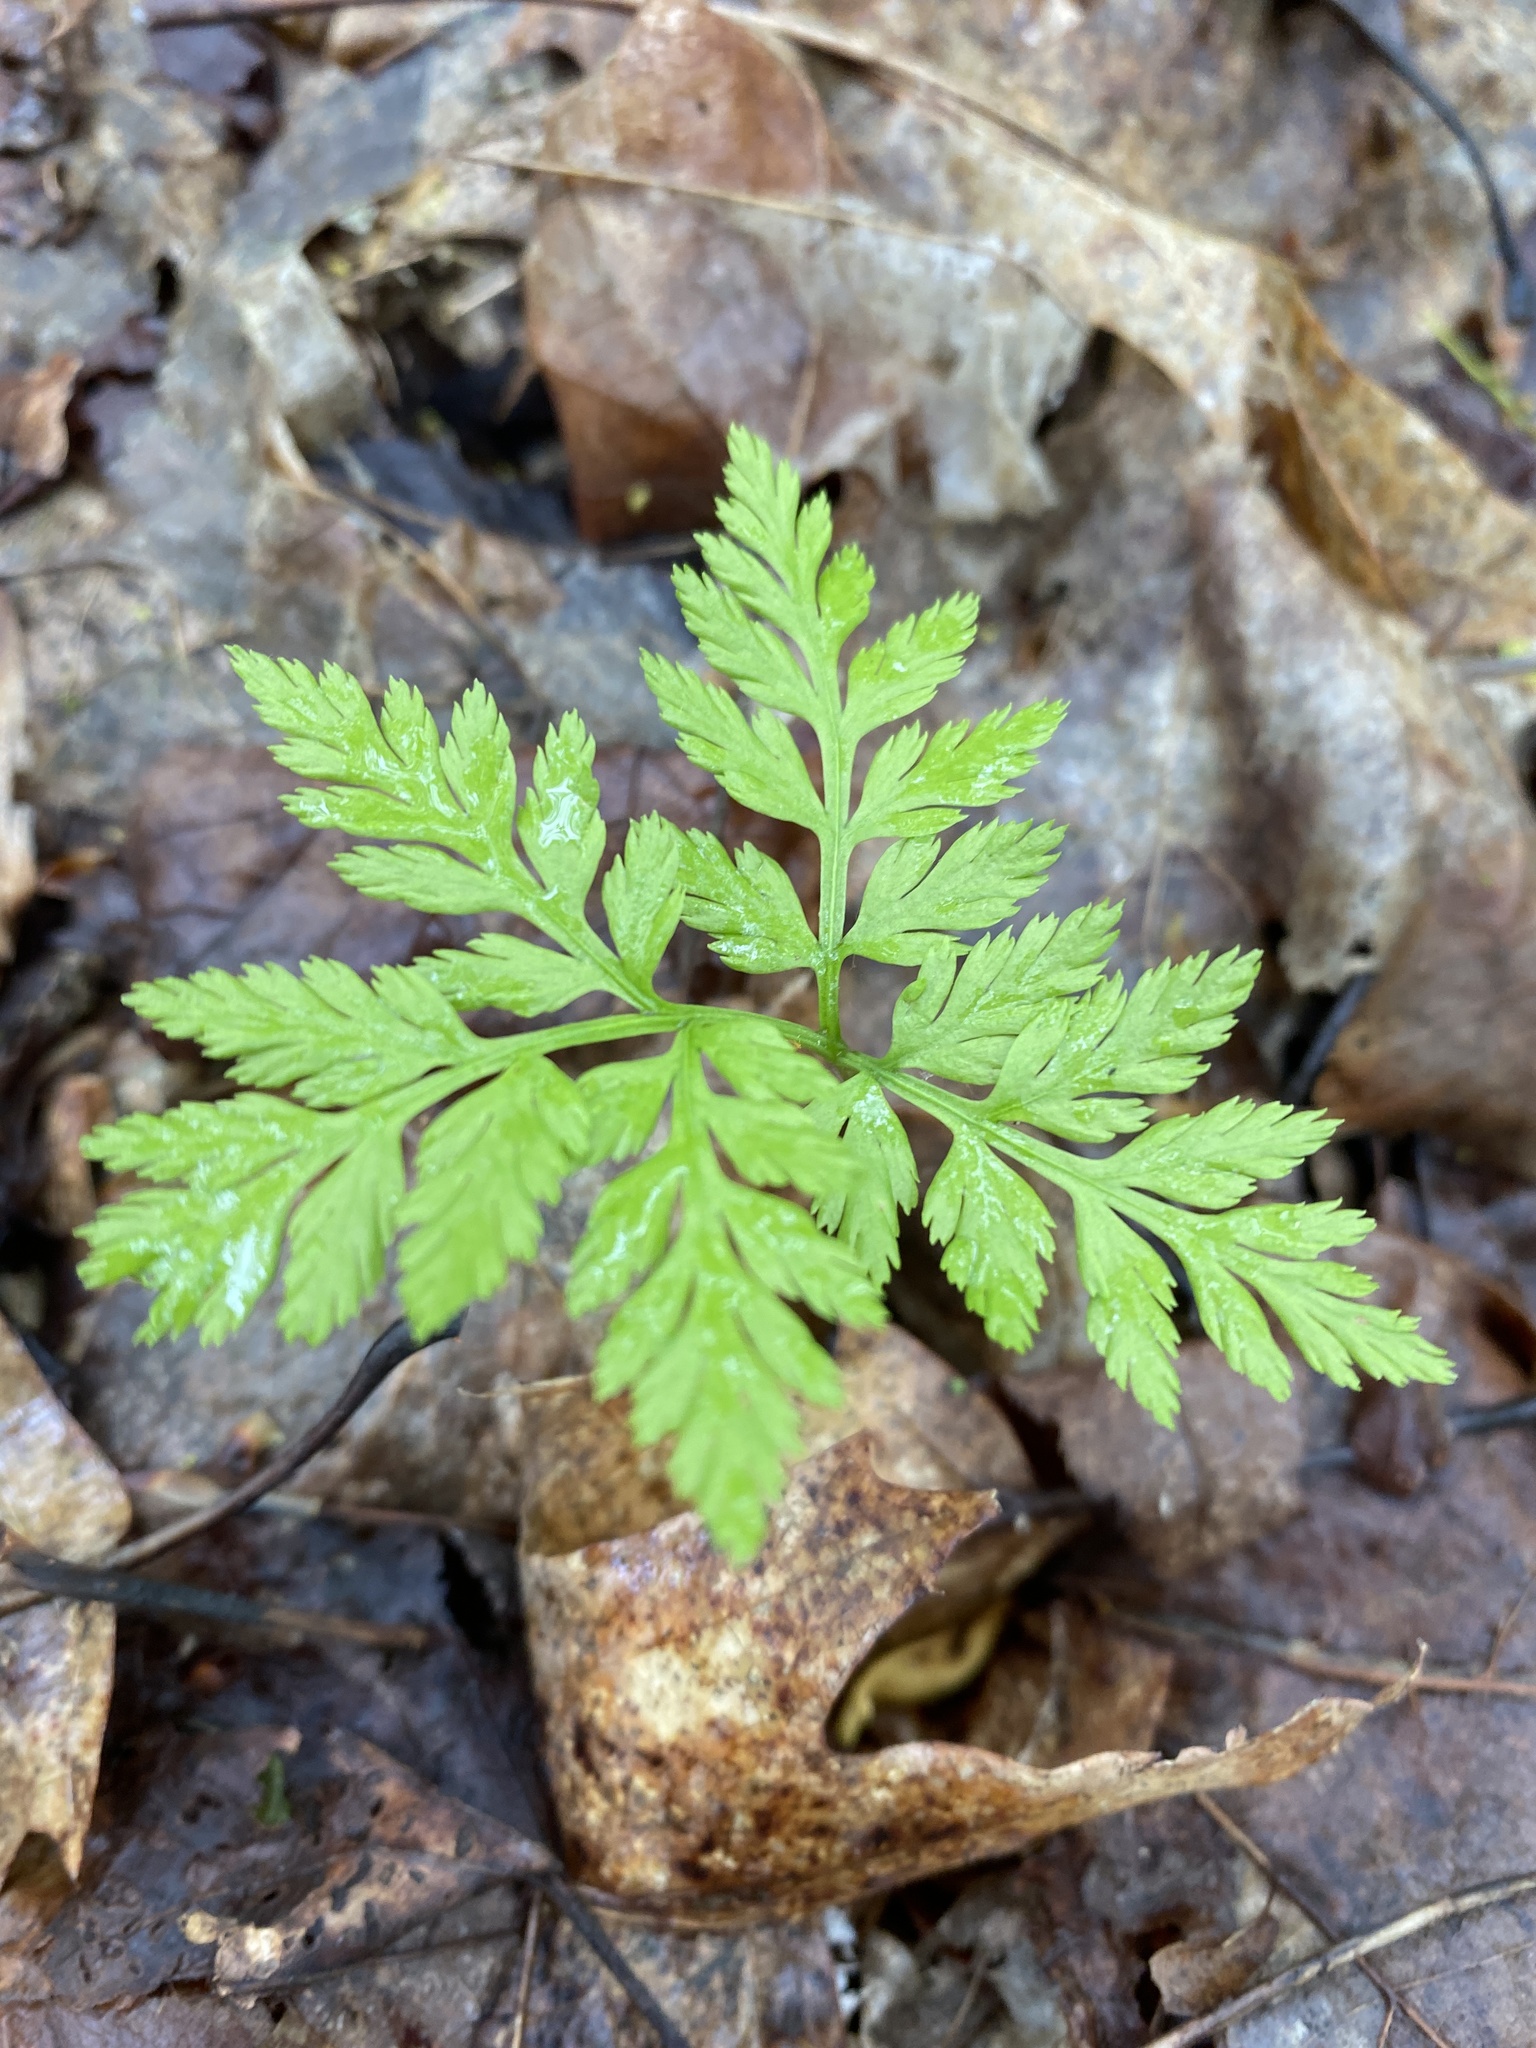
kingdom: Plantae
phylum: Tracheophyta
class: Polypodiopsida
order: Ophioglossales
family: Ophioglossaceae
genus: Botrypus
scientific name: Botrypus virginianus
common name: Common grapefern
